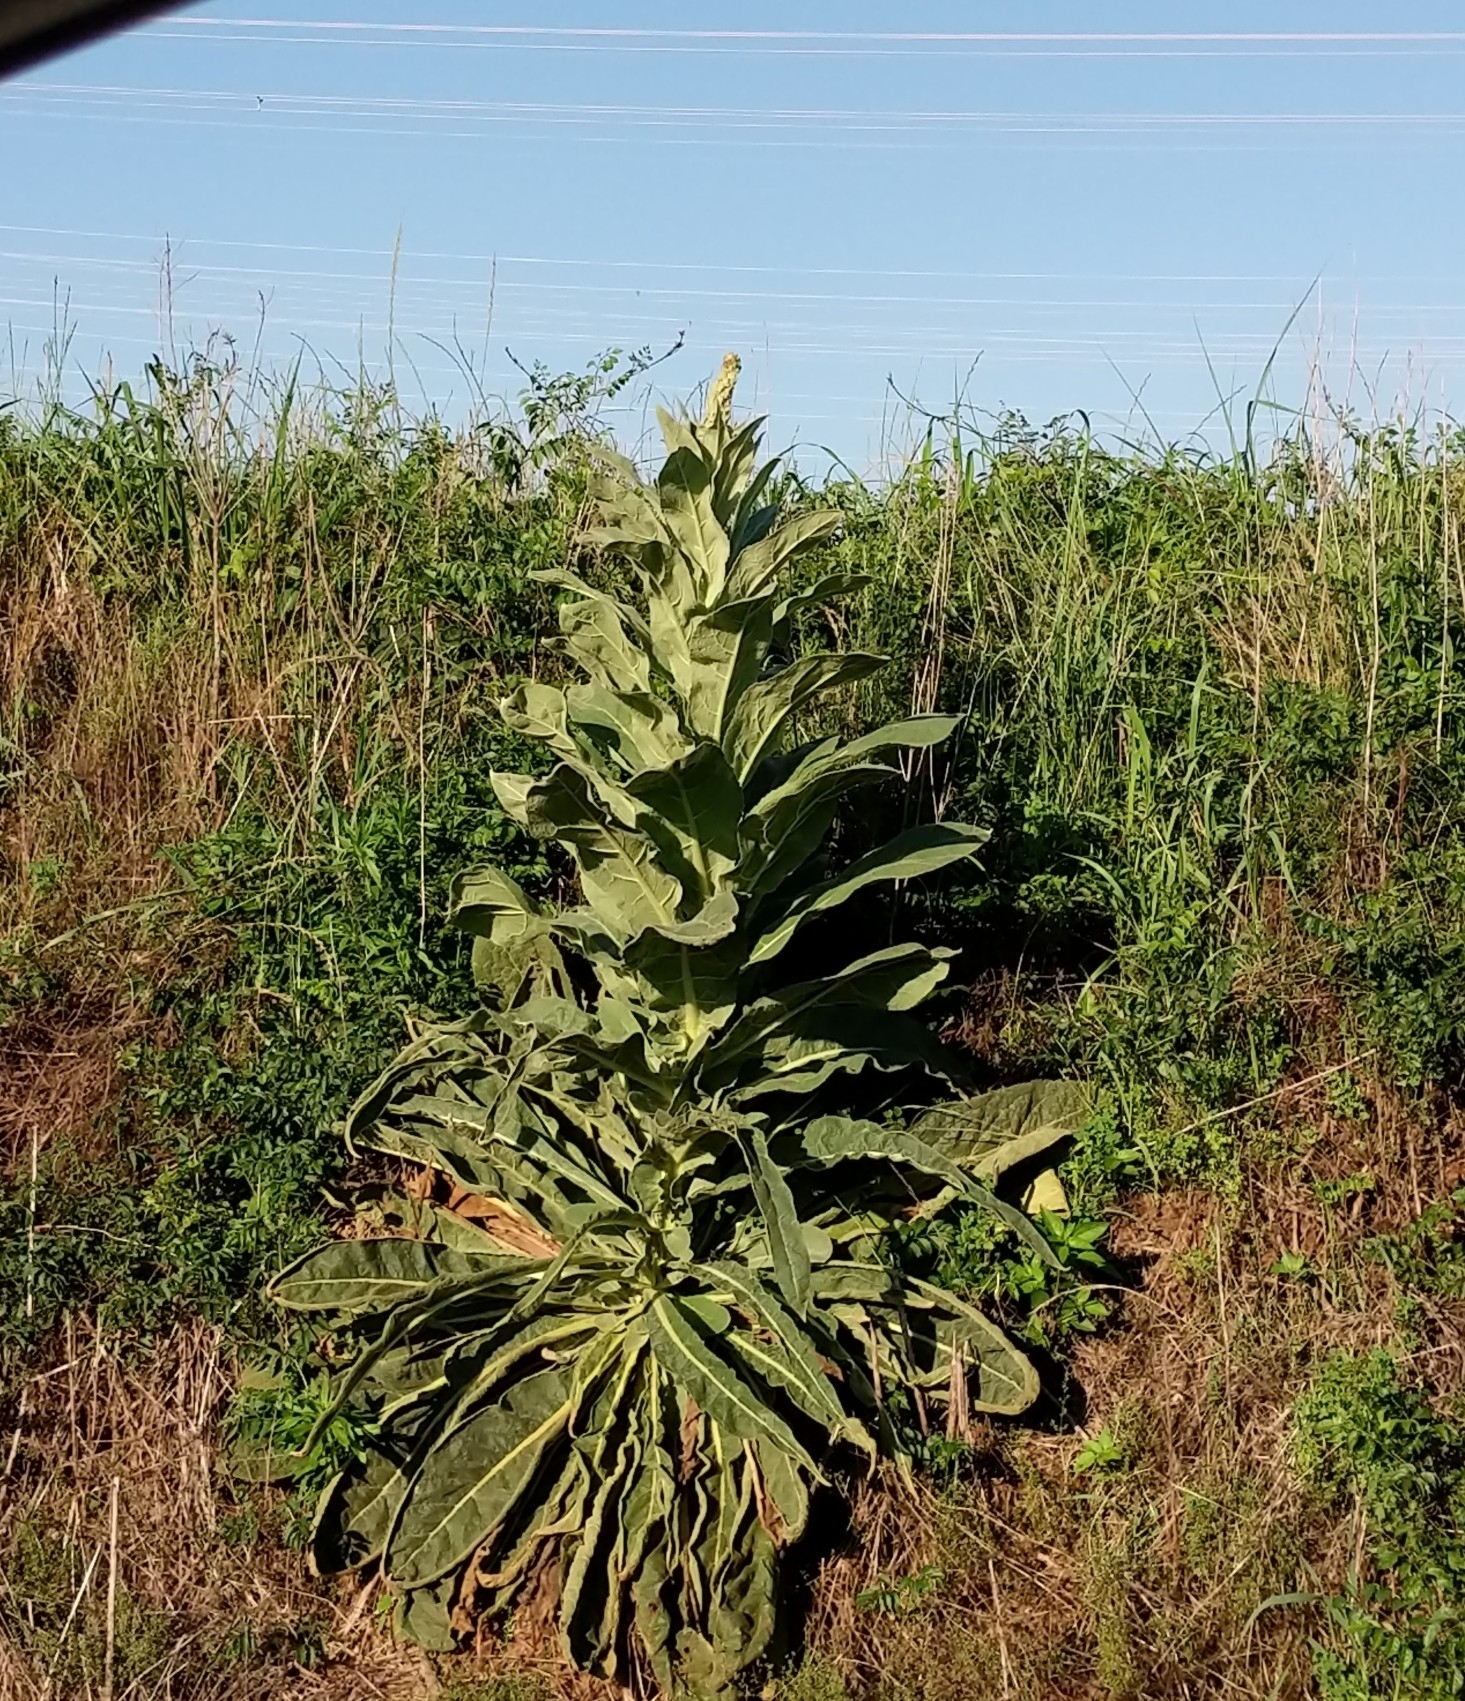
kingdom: Plantae
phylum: Tracheophyta
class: Magnoliopsida
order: Lamiales
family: Scrophulariaceae
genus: Verbascum
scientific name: Verbascum thapsus
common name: Common mullein
